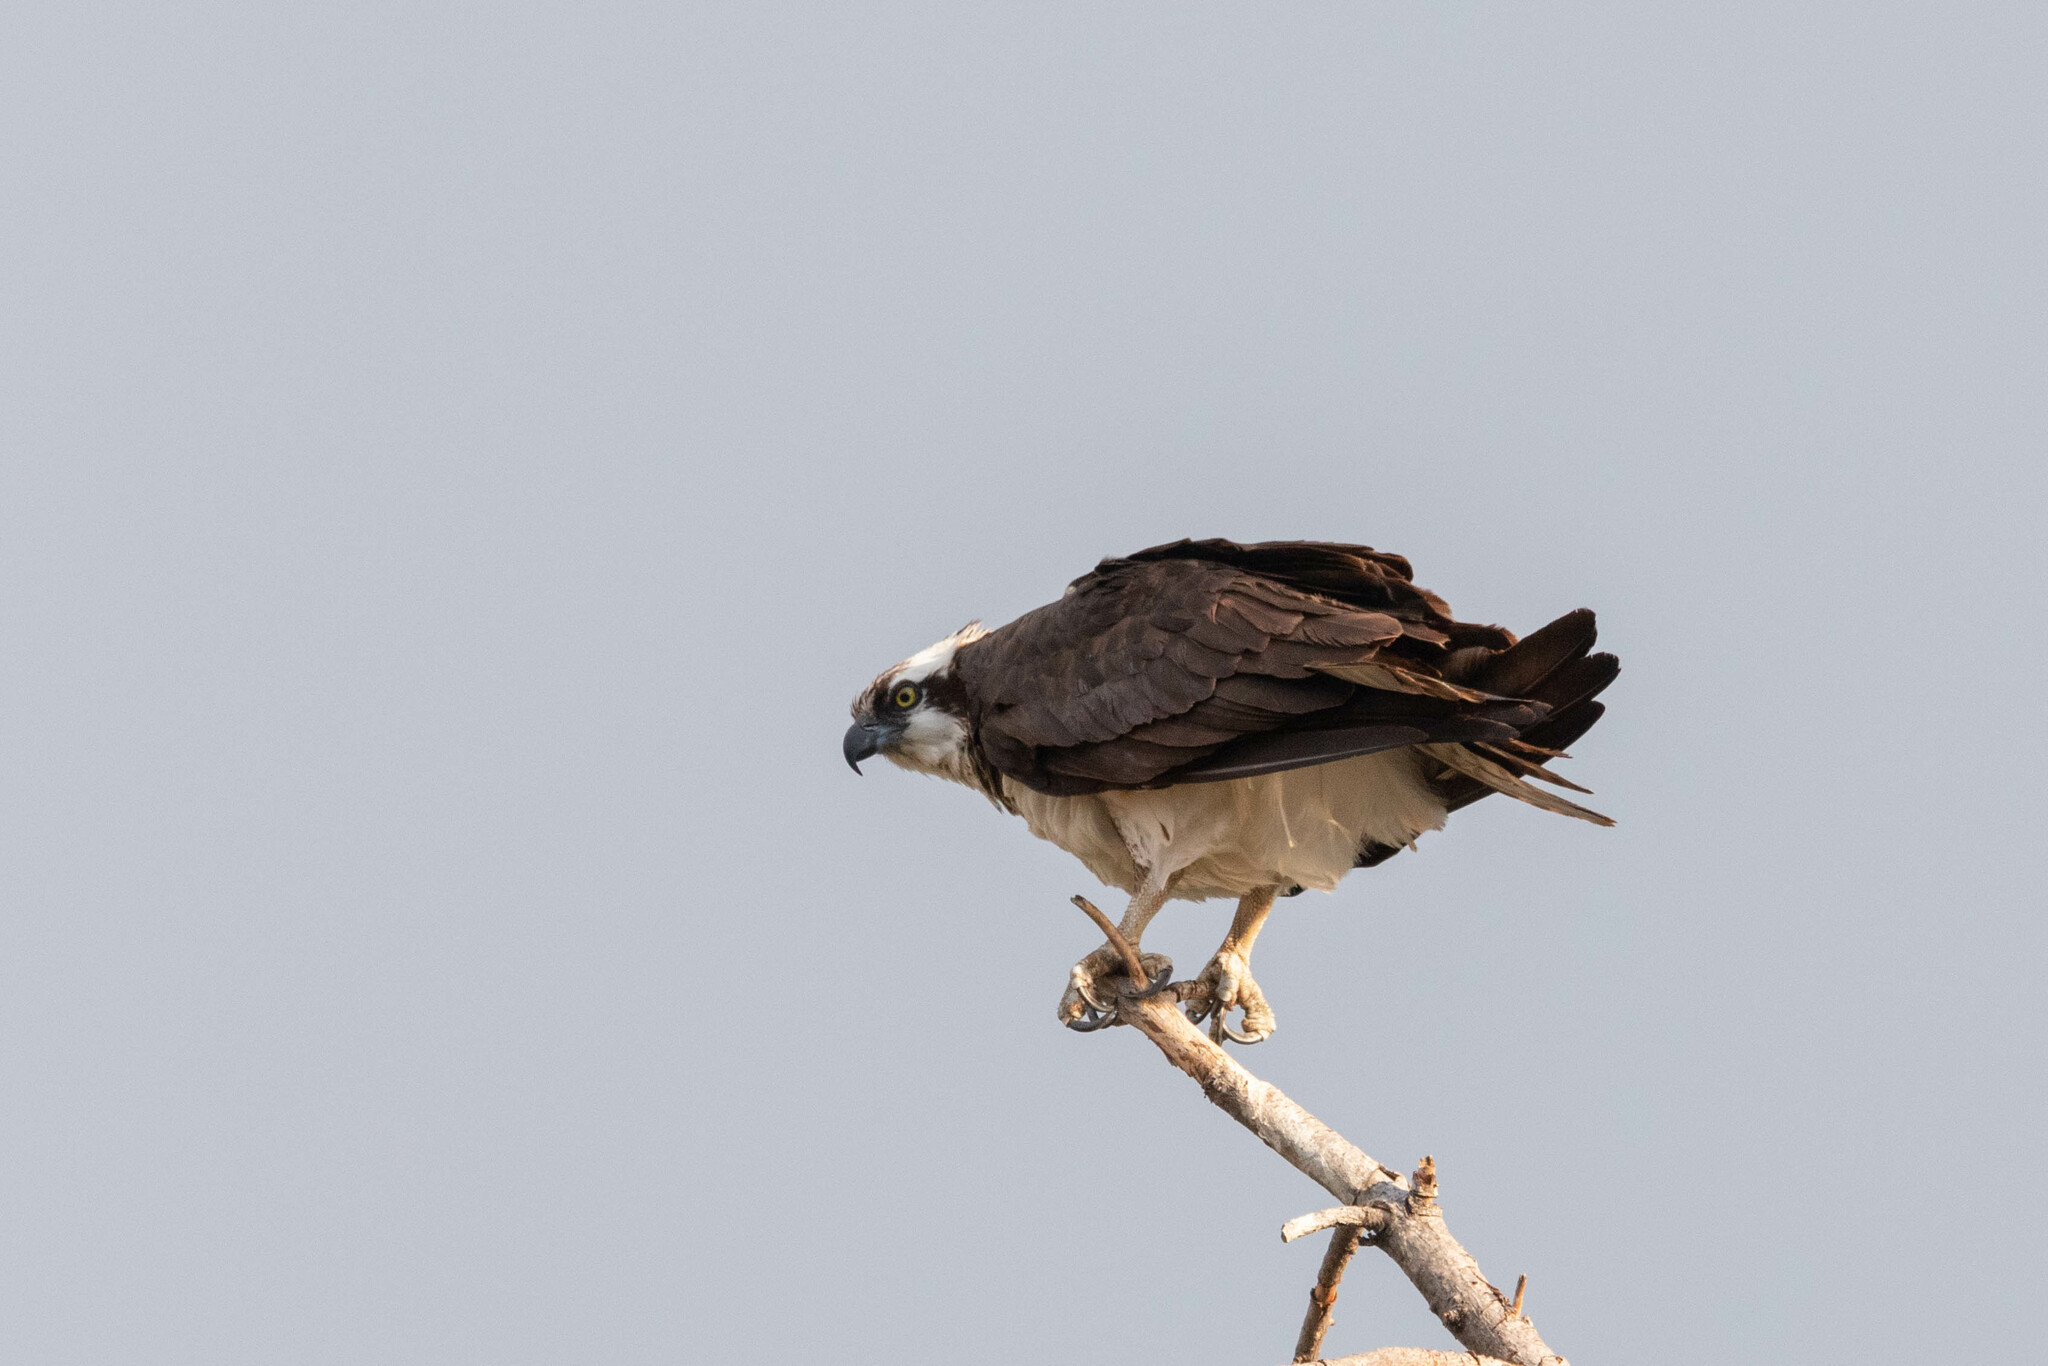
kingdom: Animalia
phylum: Chordata
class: Aves
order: Accipitriformes
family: Pandionidae
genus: Pandion
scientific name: Pandion haliaetus
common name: Osprey
